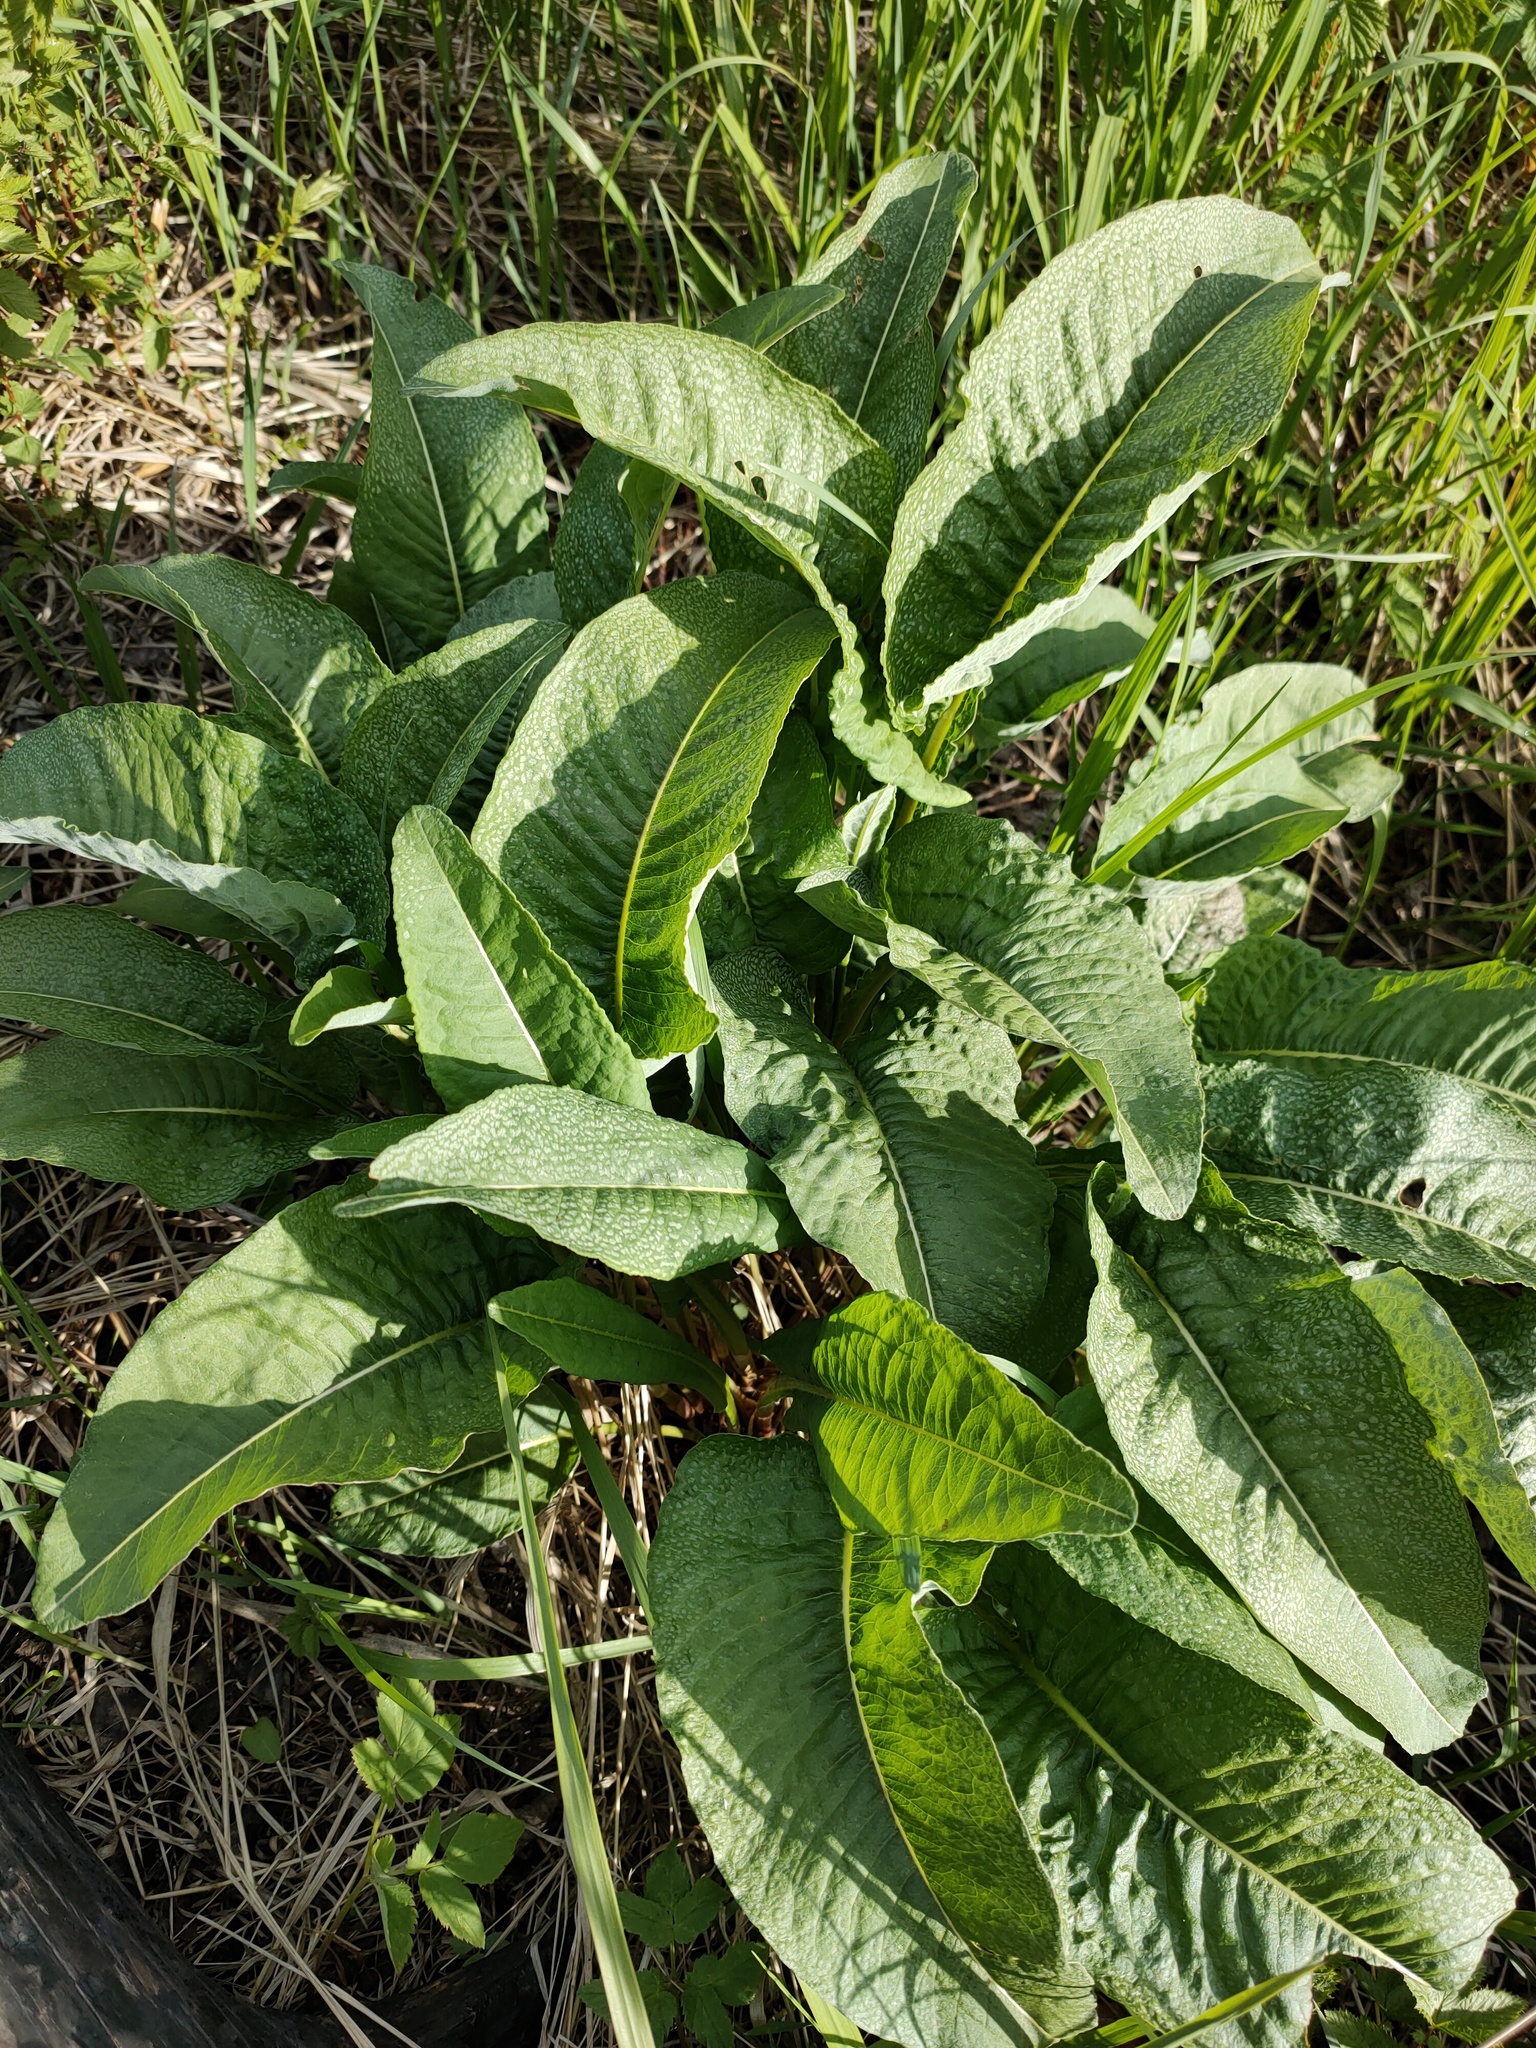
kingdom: Plantae
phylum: Tracheophyta
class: Magnoliopsida
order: Caryophyllales
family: Polygonaceae
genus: Bistorta
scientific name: Bistorta officinalis
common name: Common bistort
